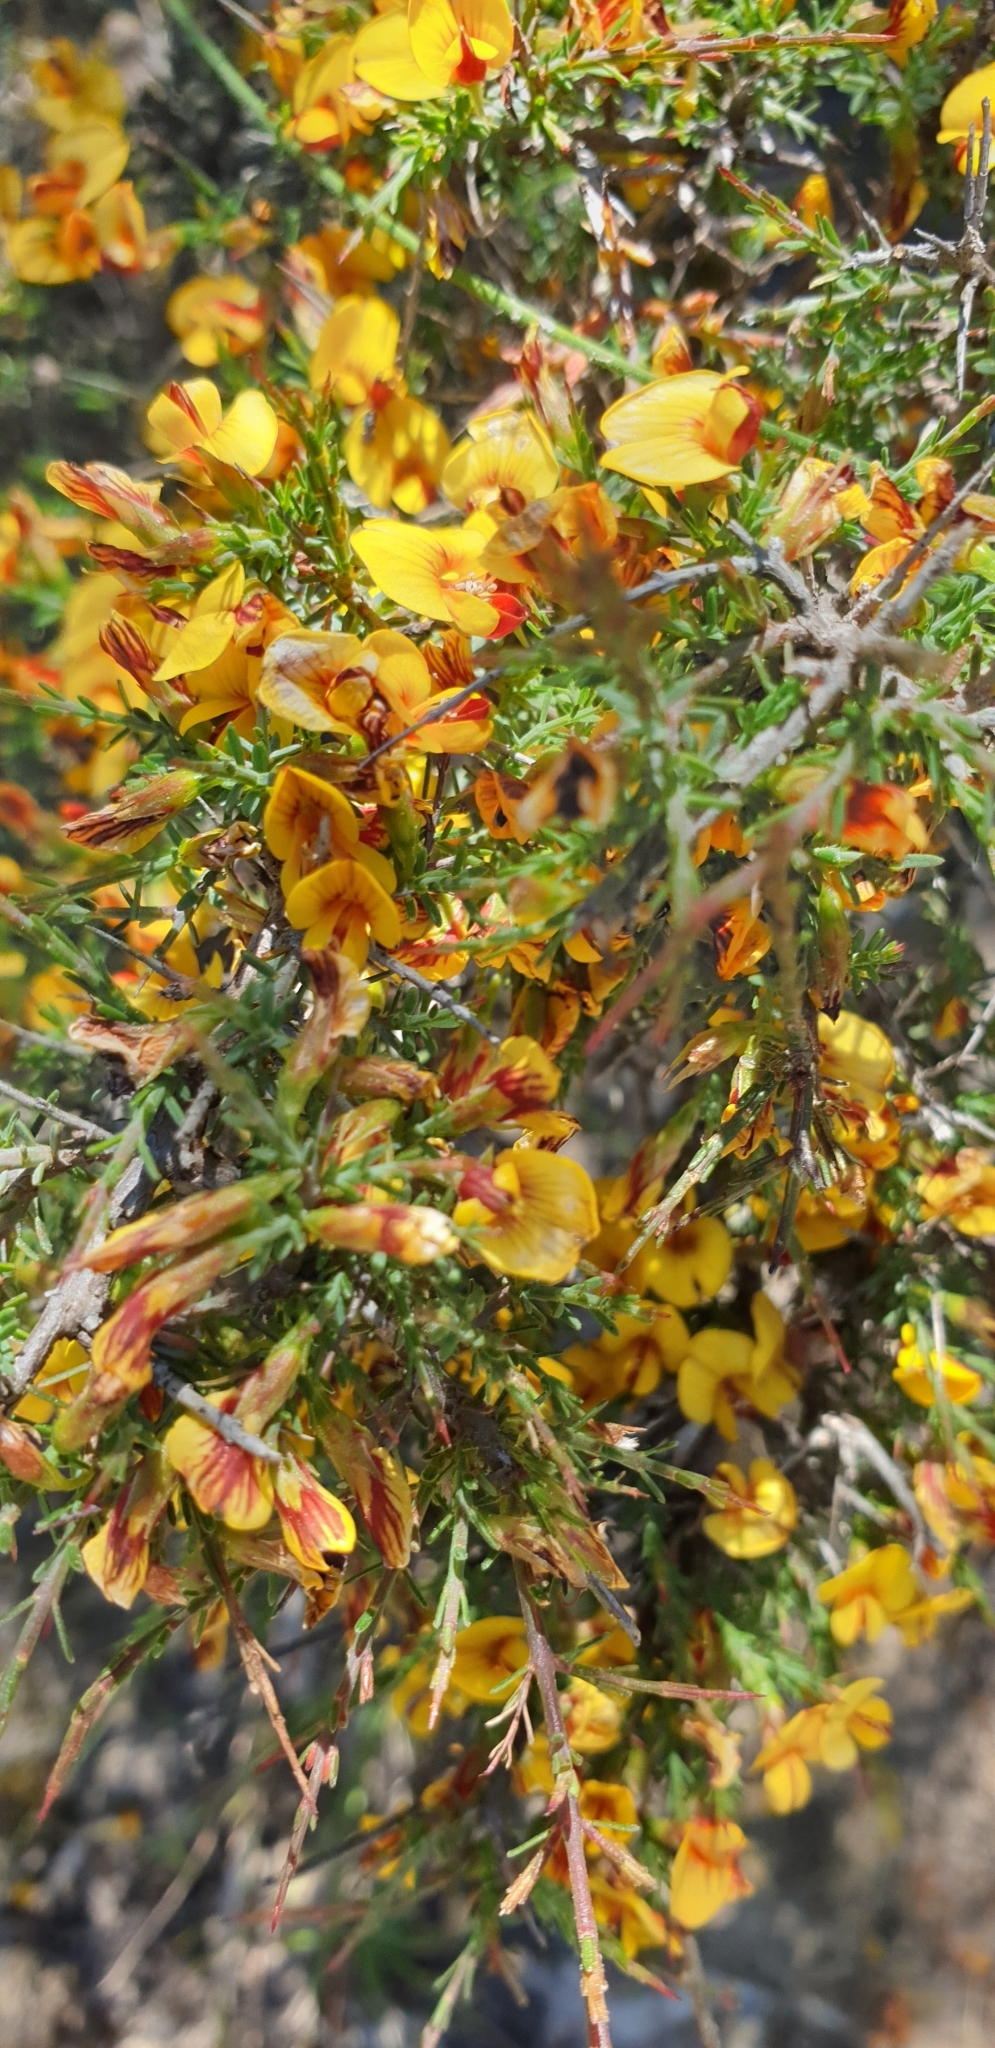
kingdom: Plantae
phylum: Tracheophyta
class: Magnoliopsida
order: Fabales
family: Fabaceae
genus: Eutaxia
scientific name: Eutaxia microphylla
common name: Mallee bush-pea
